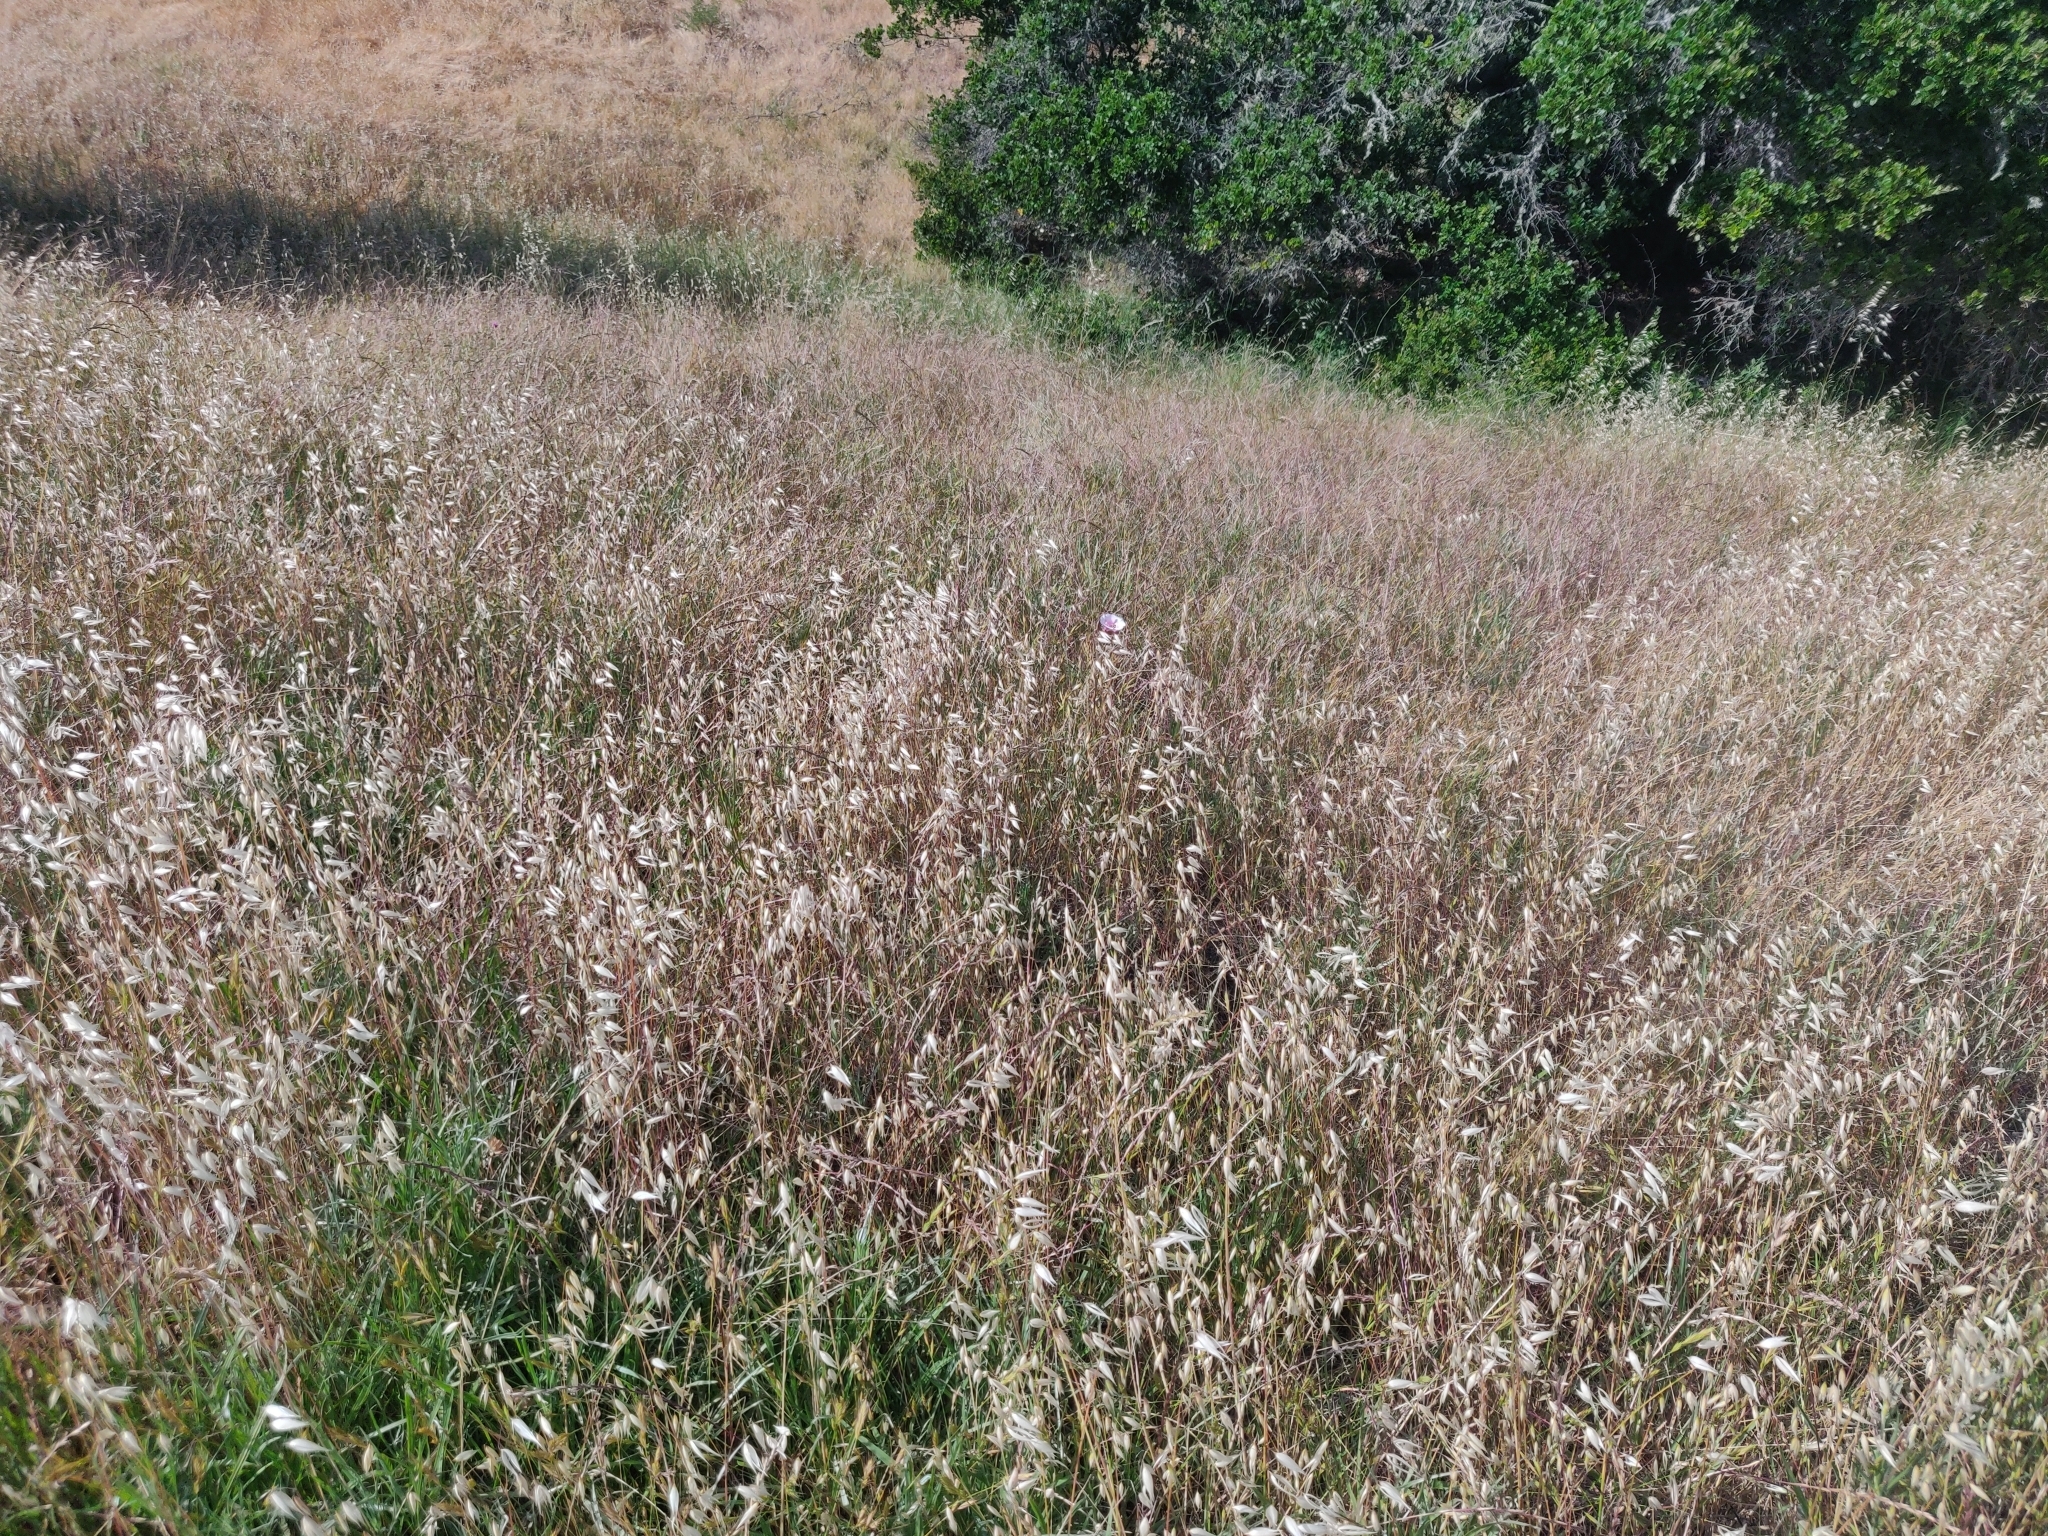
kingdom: Plantae
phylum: Tracheophyta
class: Liliopsida
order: Liliales
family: Liliaceae
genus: Calochortus
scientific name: Calochortus argillosus
